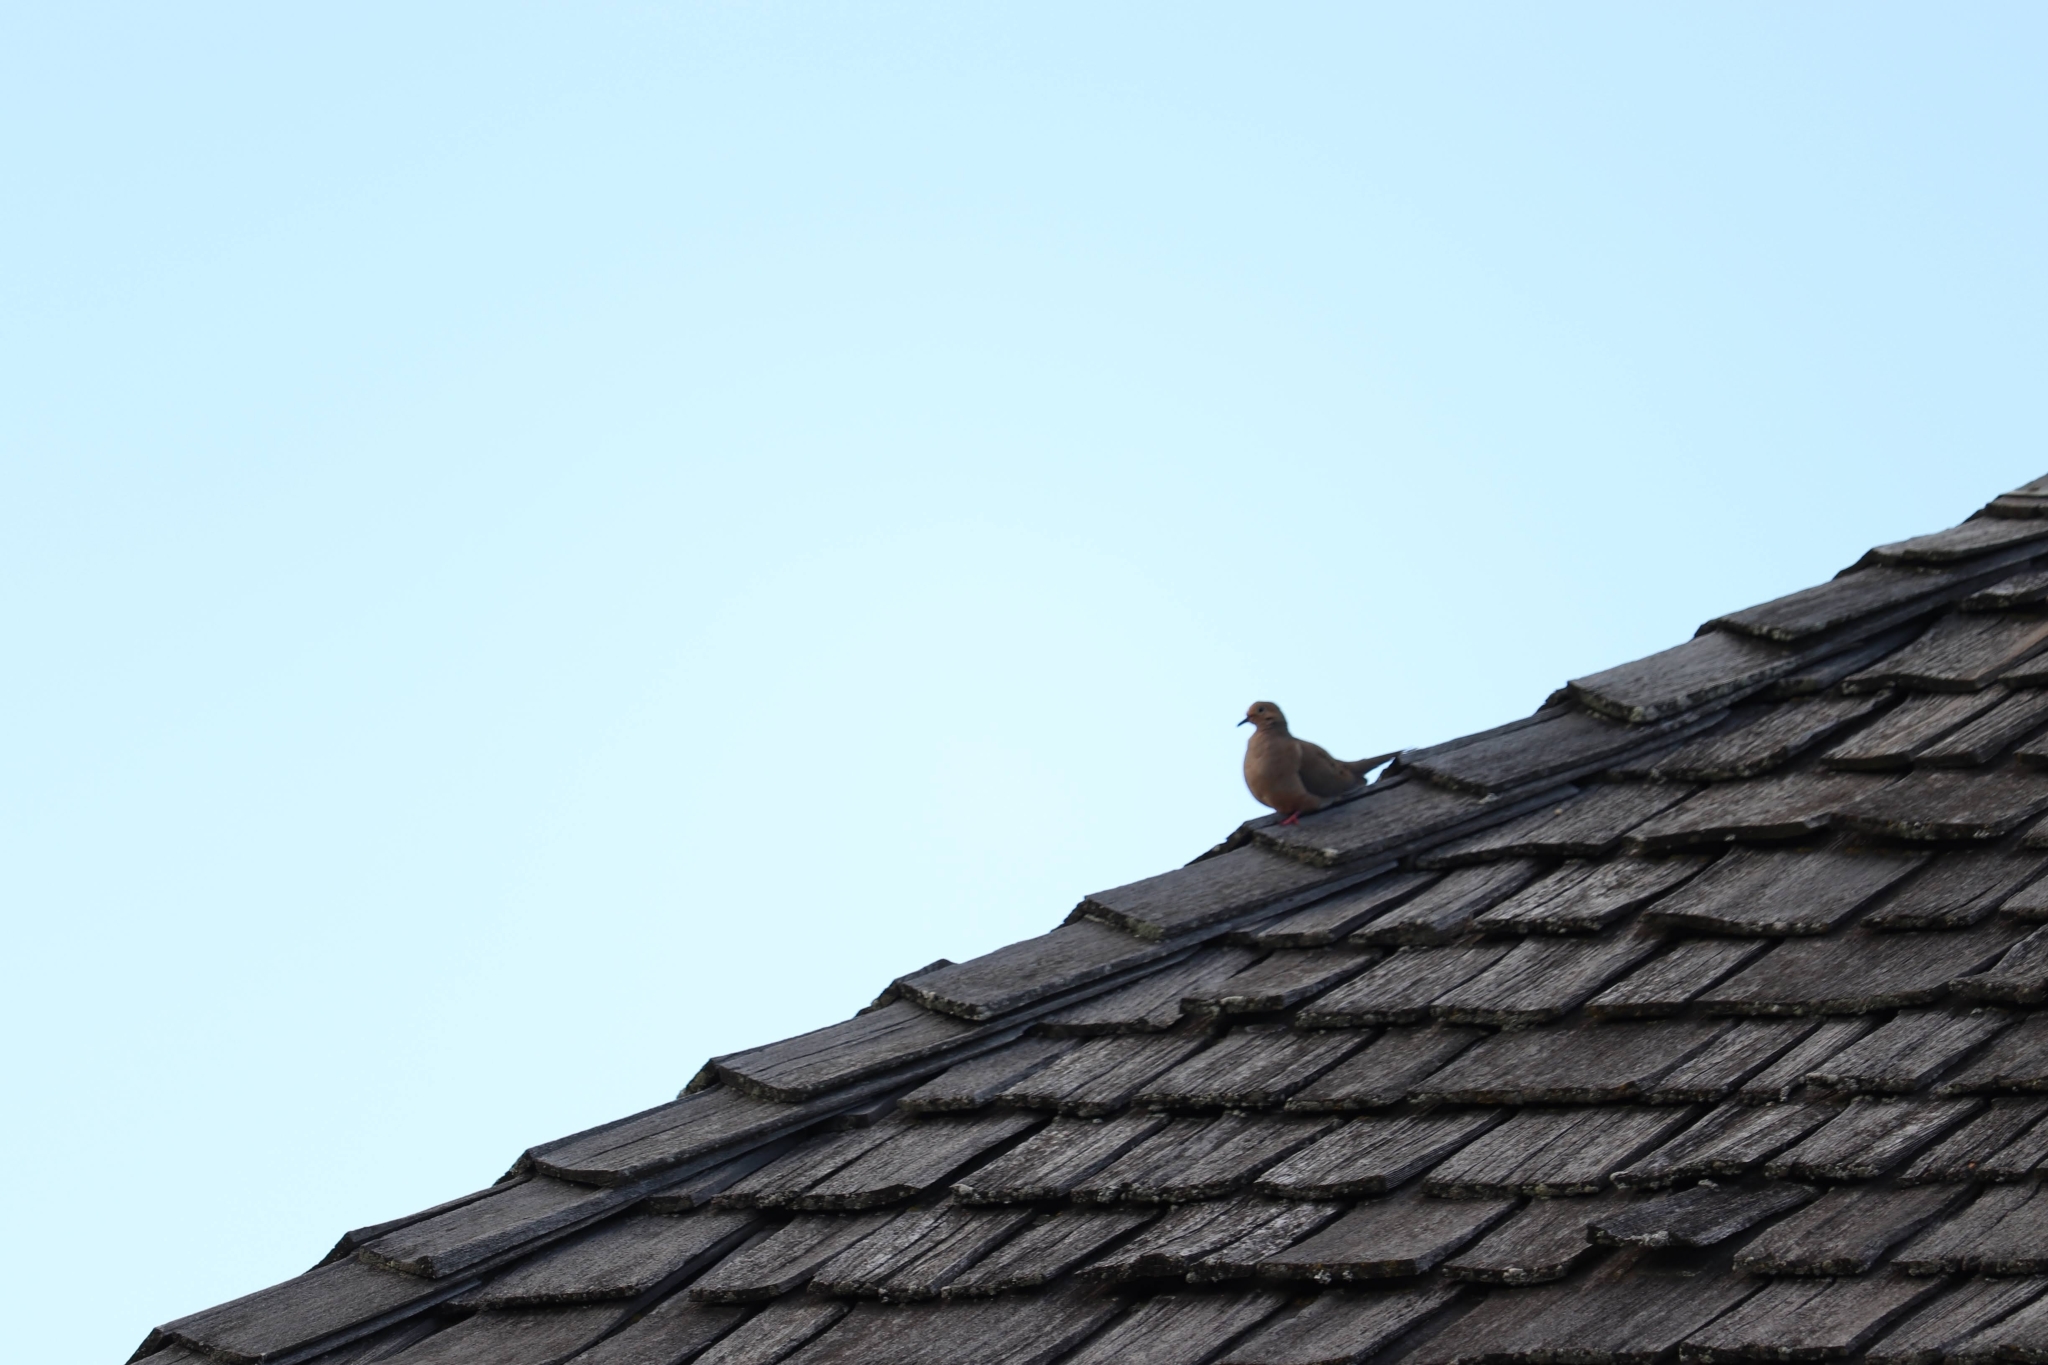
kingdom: Animalia
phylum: Chordata
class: Aves
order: Columbiformes
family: Columbidae
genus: Zenaida
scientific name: Zenaida macroura
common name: Mourning dove
